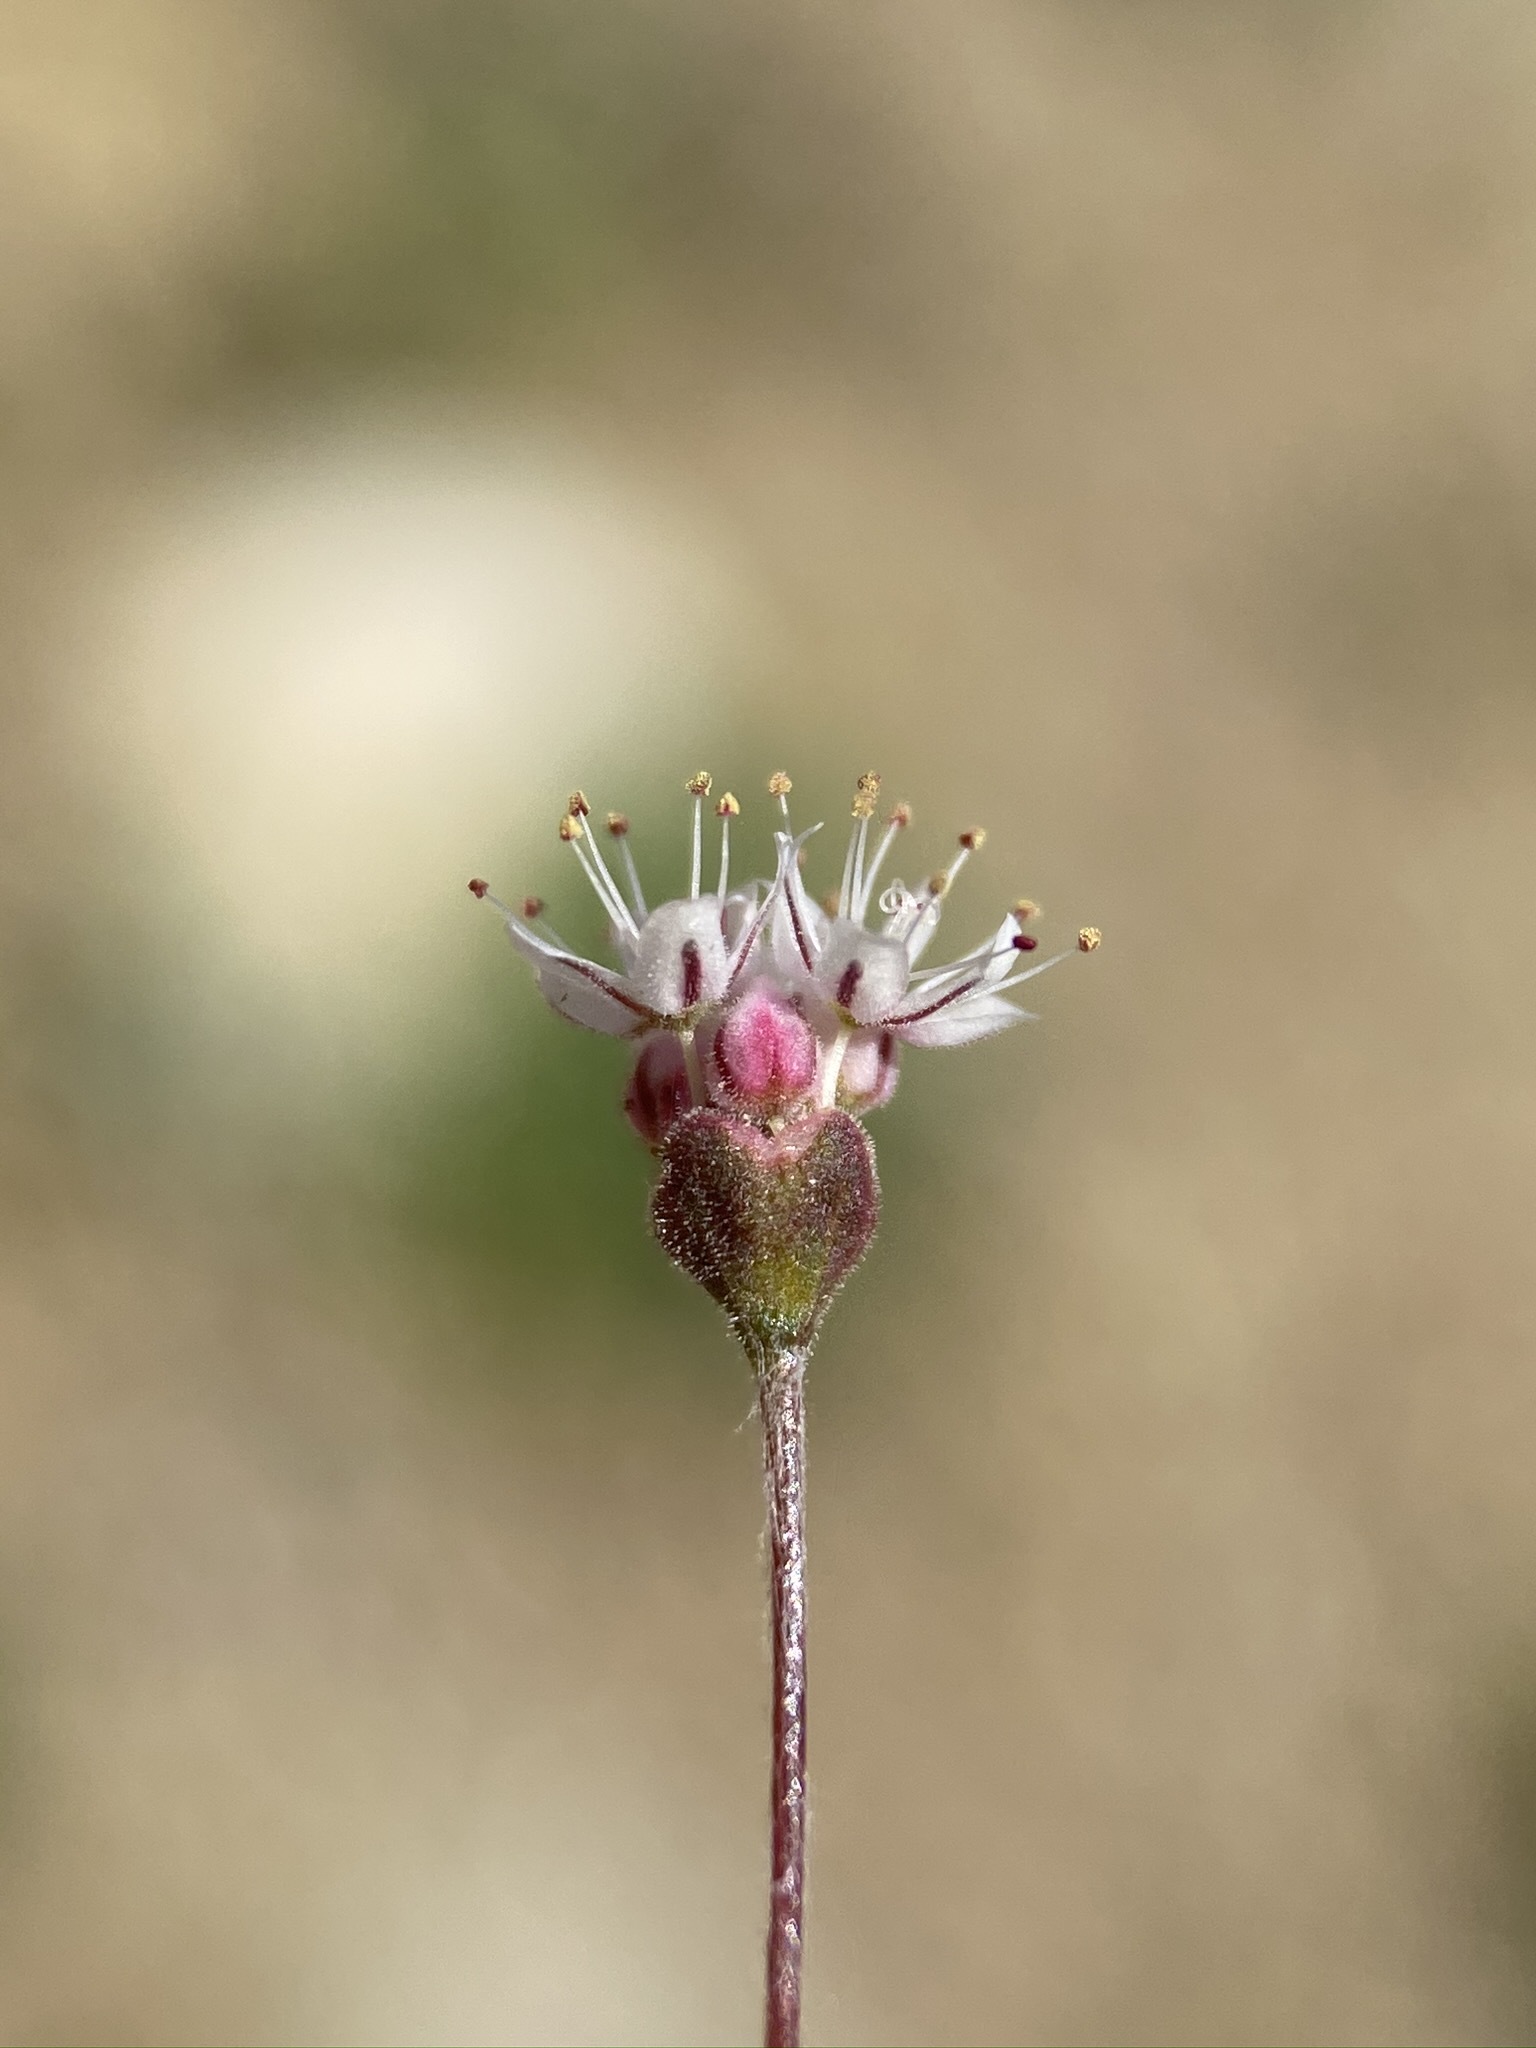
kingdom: Plantae
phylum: Tracheophyta
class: Magnoliopsida
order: Caryophyllales
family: Polygonaceae
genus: Eriogonum
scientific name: Eriogonum angulosum
